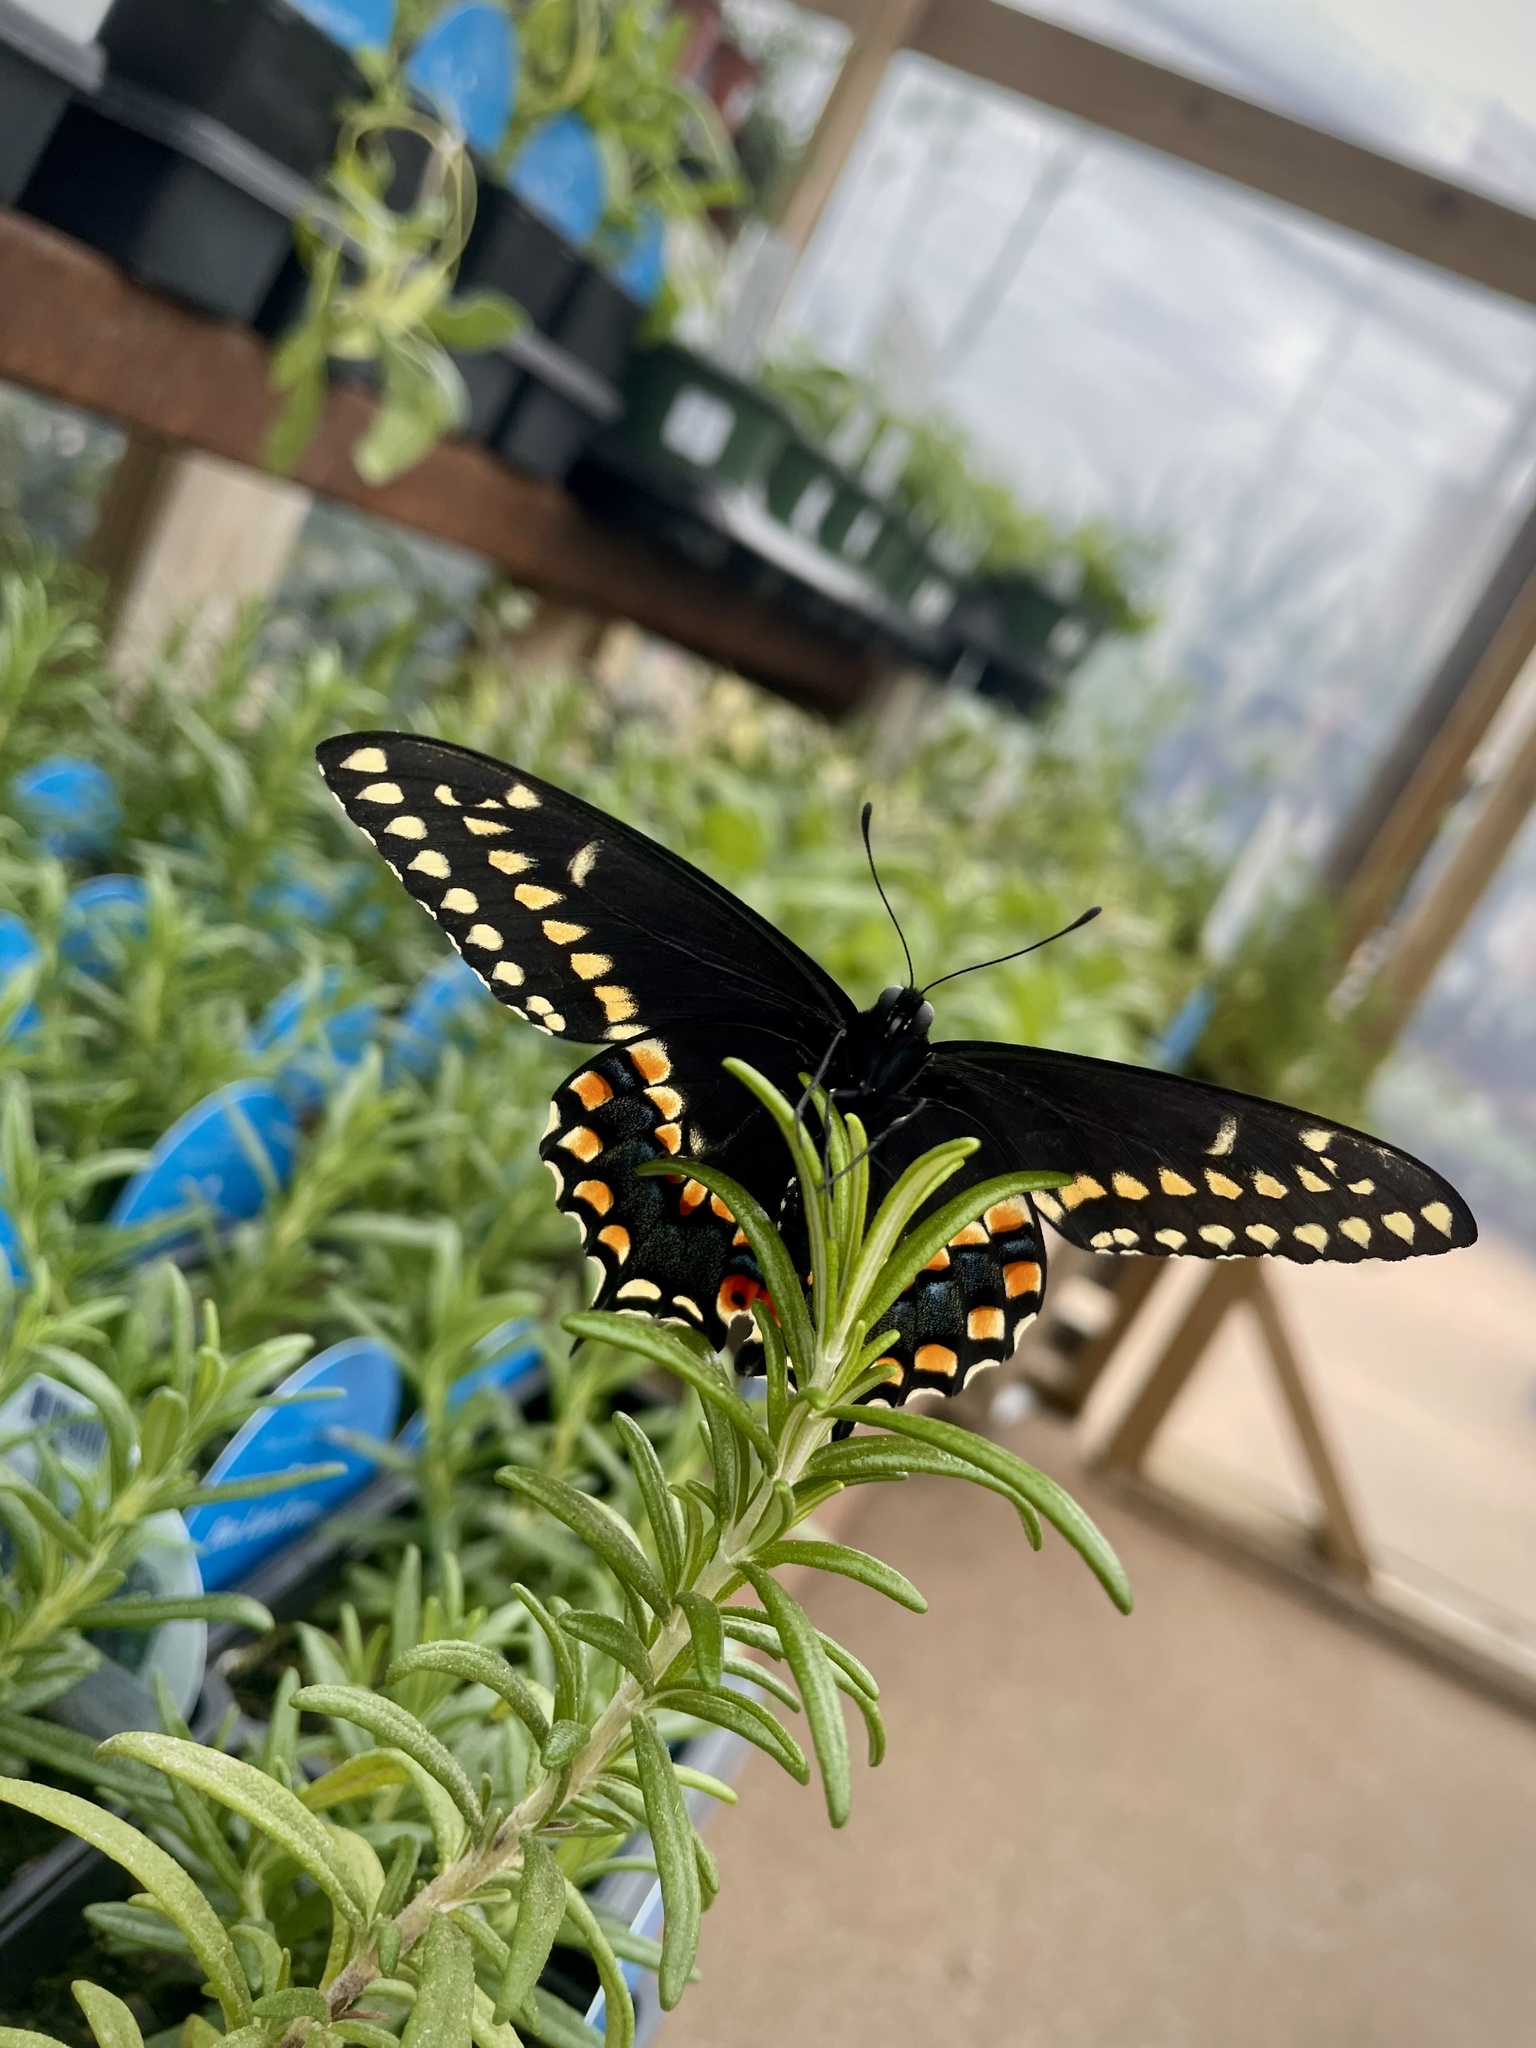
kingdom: Animalia
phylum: Arthropoda
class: Insecta
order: Lepidoptera
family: Papilionidae
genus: Papilio
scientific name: Papilio polyxenes
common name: Black swallowtail
